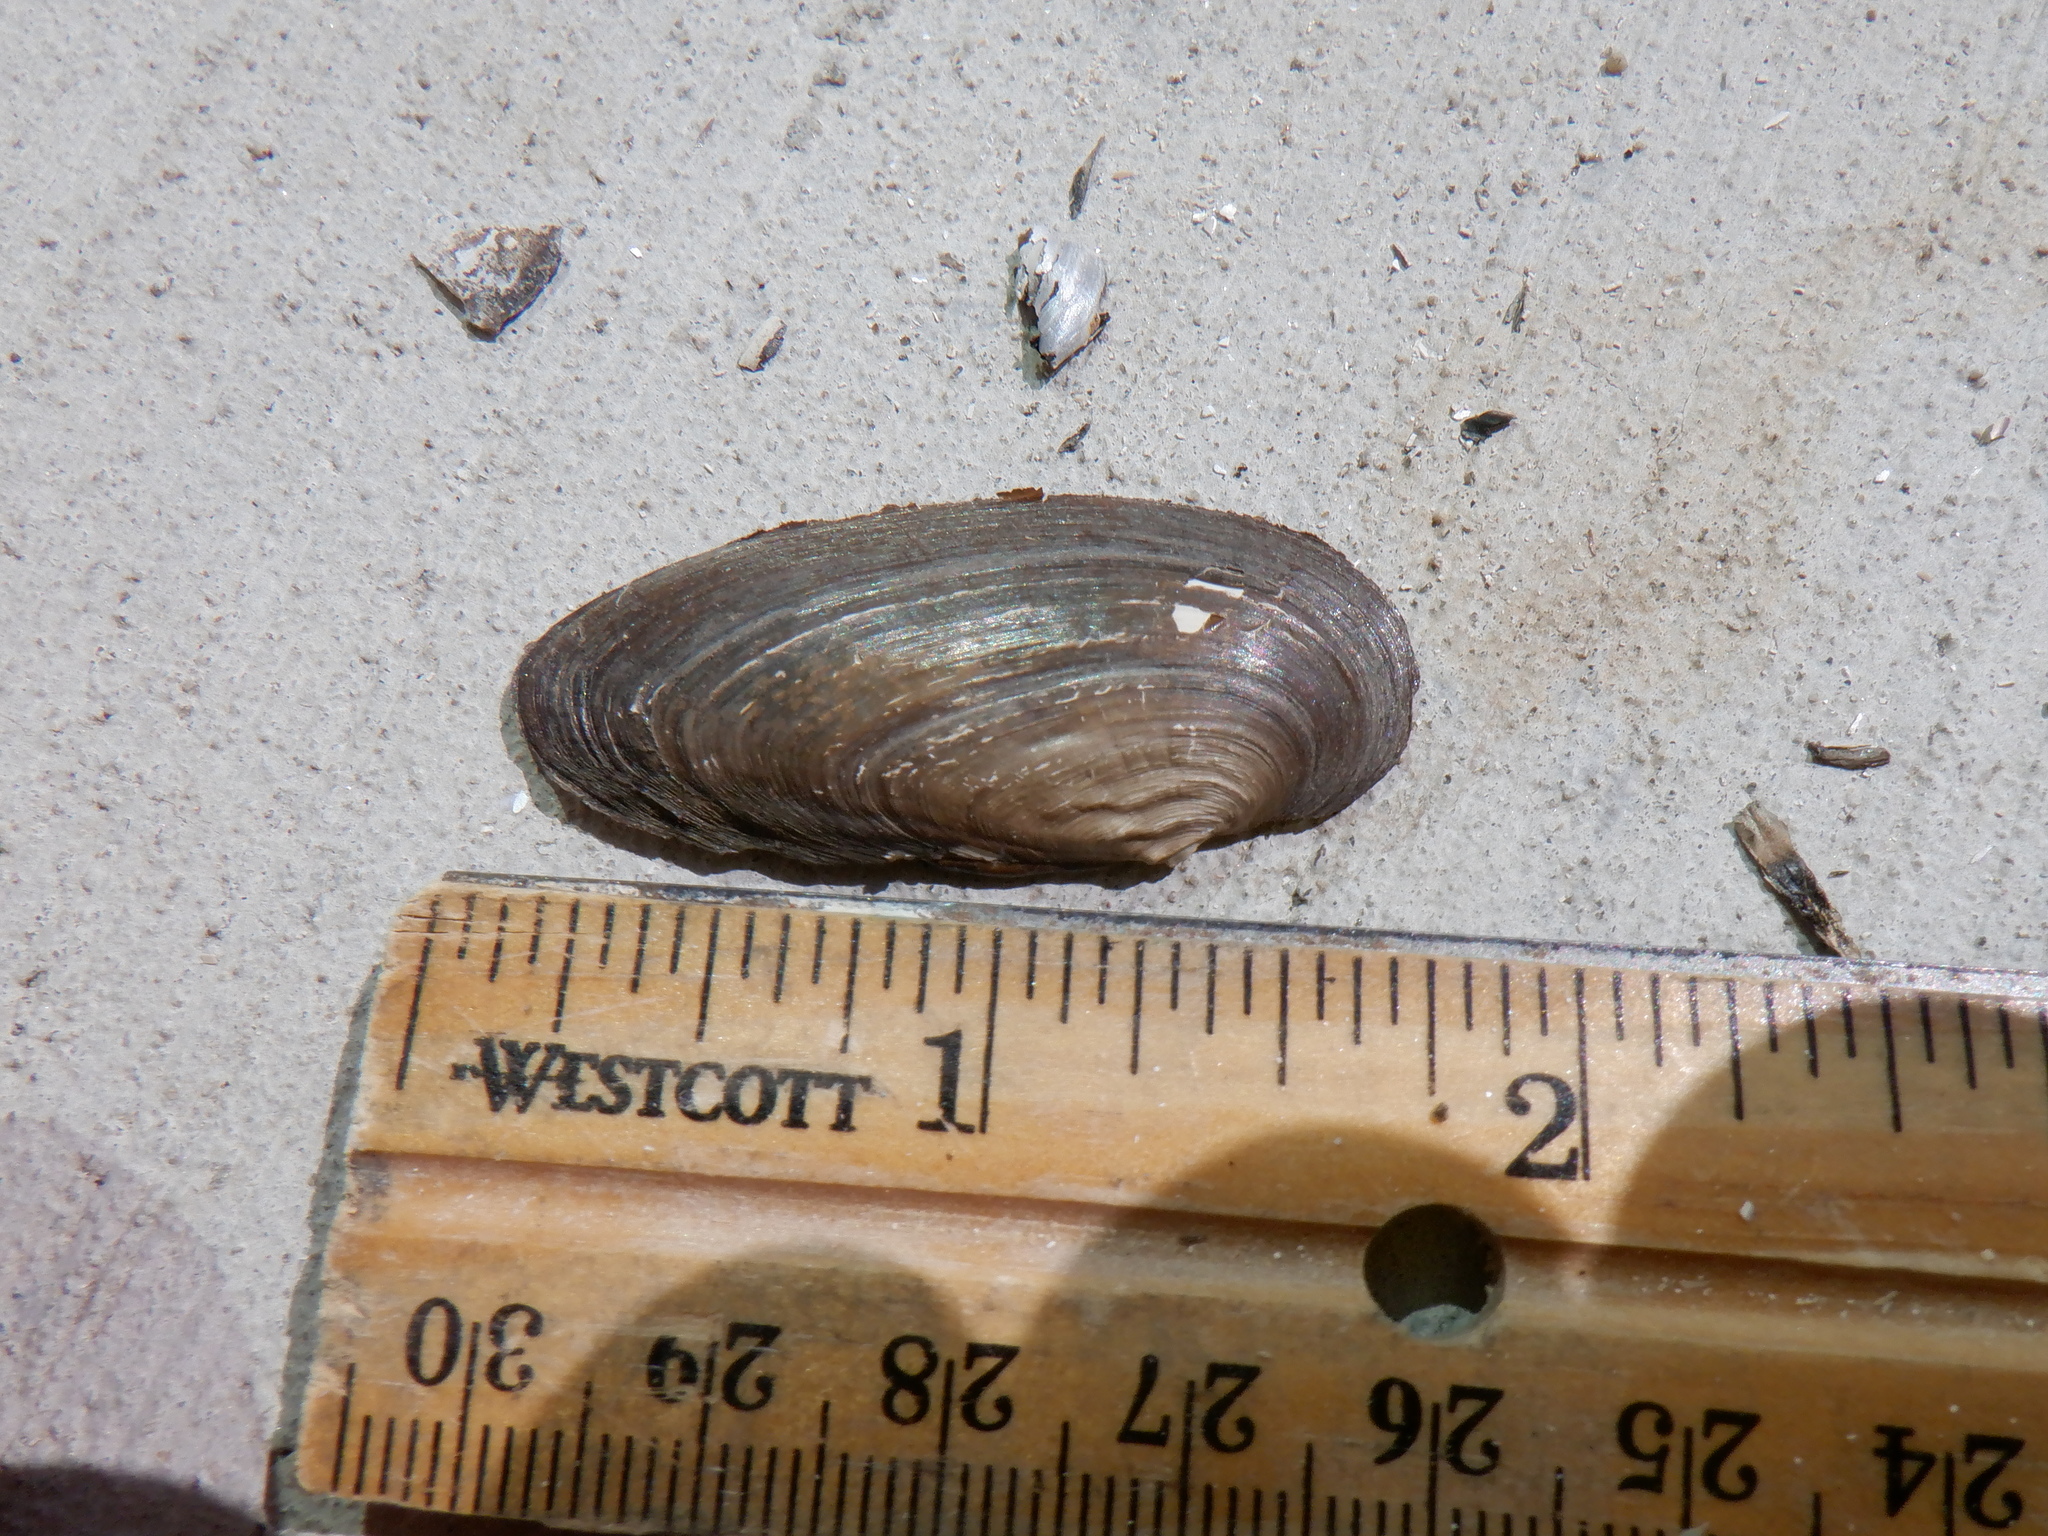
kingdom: Animalia
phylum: Mollusca
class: Bivalvia
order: Unionida
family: Unionidae
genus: Eurynia
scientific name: Eurynia dilatata
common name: Spike
